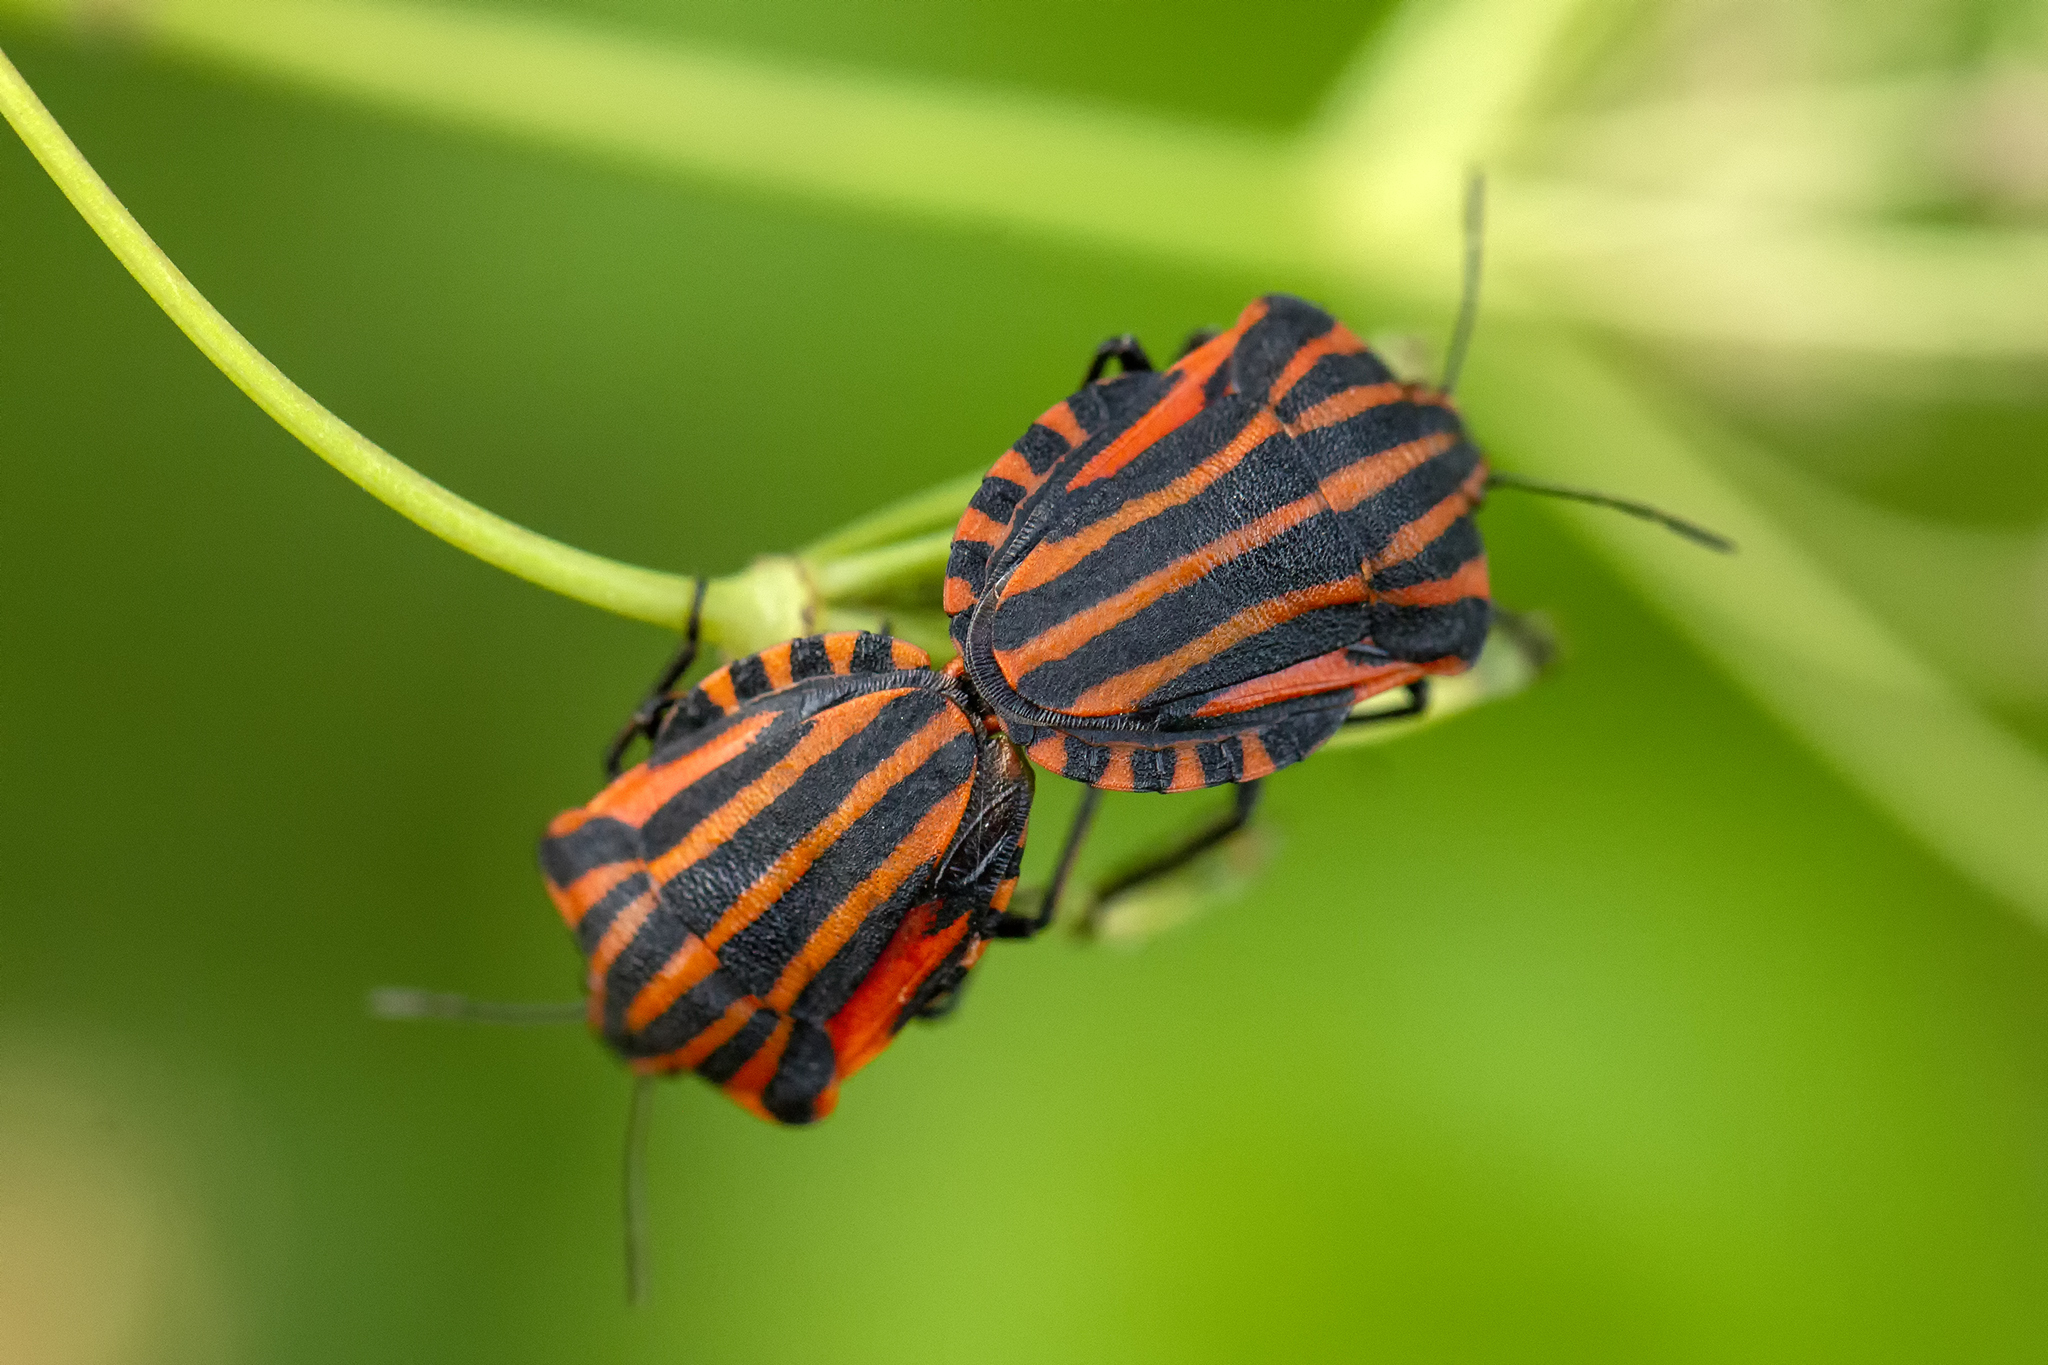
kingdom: Animalia
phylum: Arthropoda
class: Insecta
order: Hemiptera
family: Pentatomidae
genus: Graphosoma
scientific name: Graphosoma italicum
